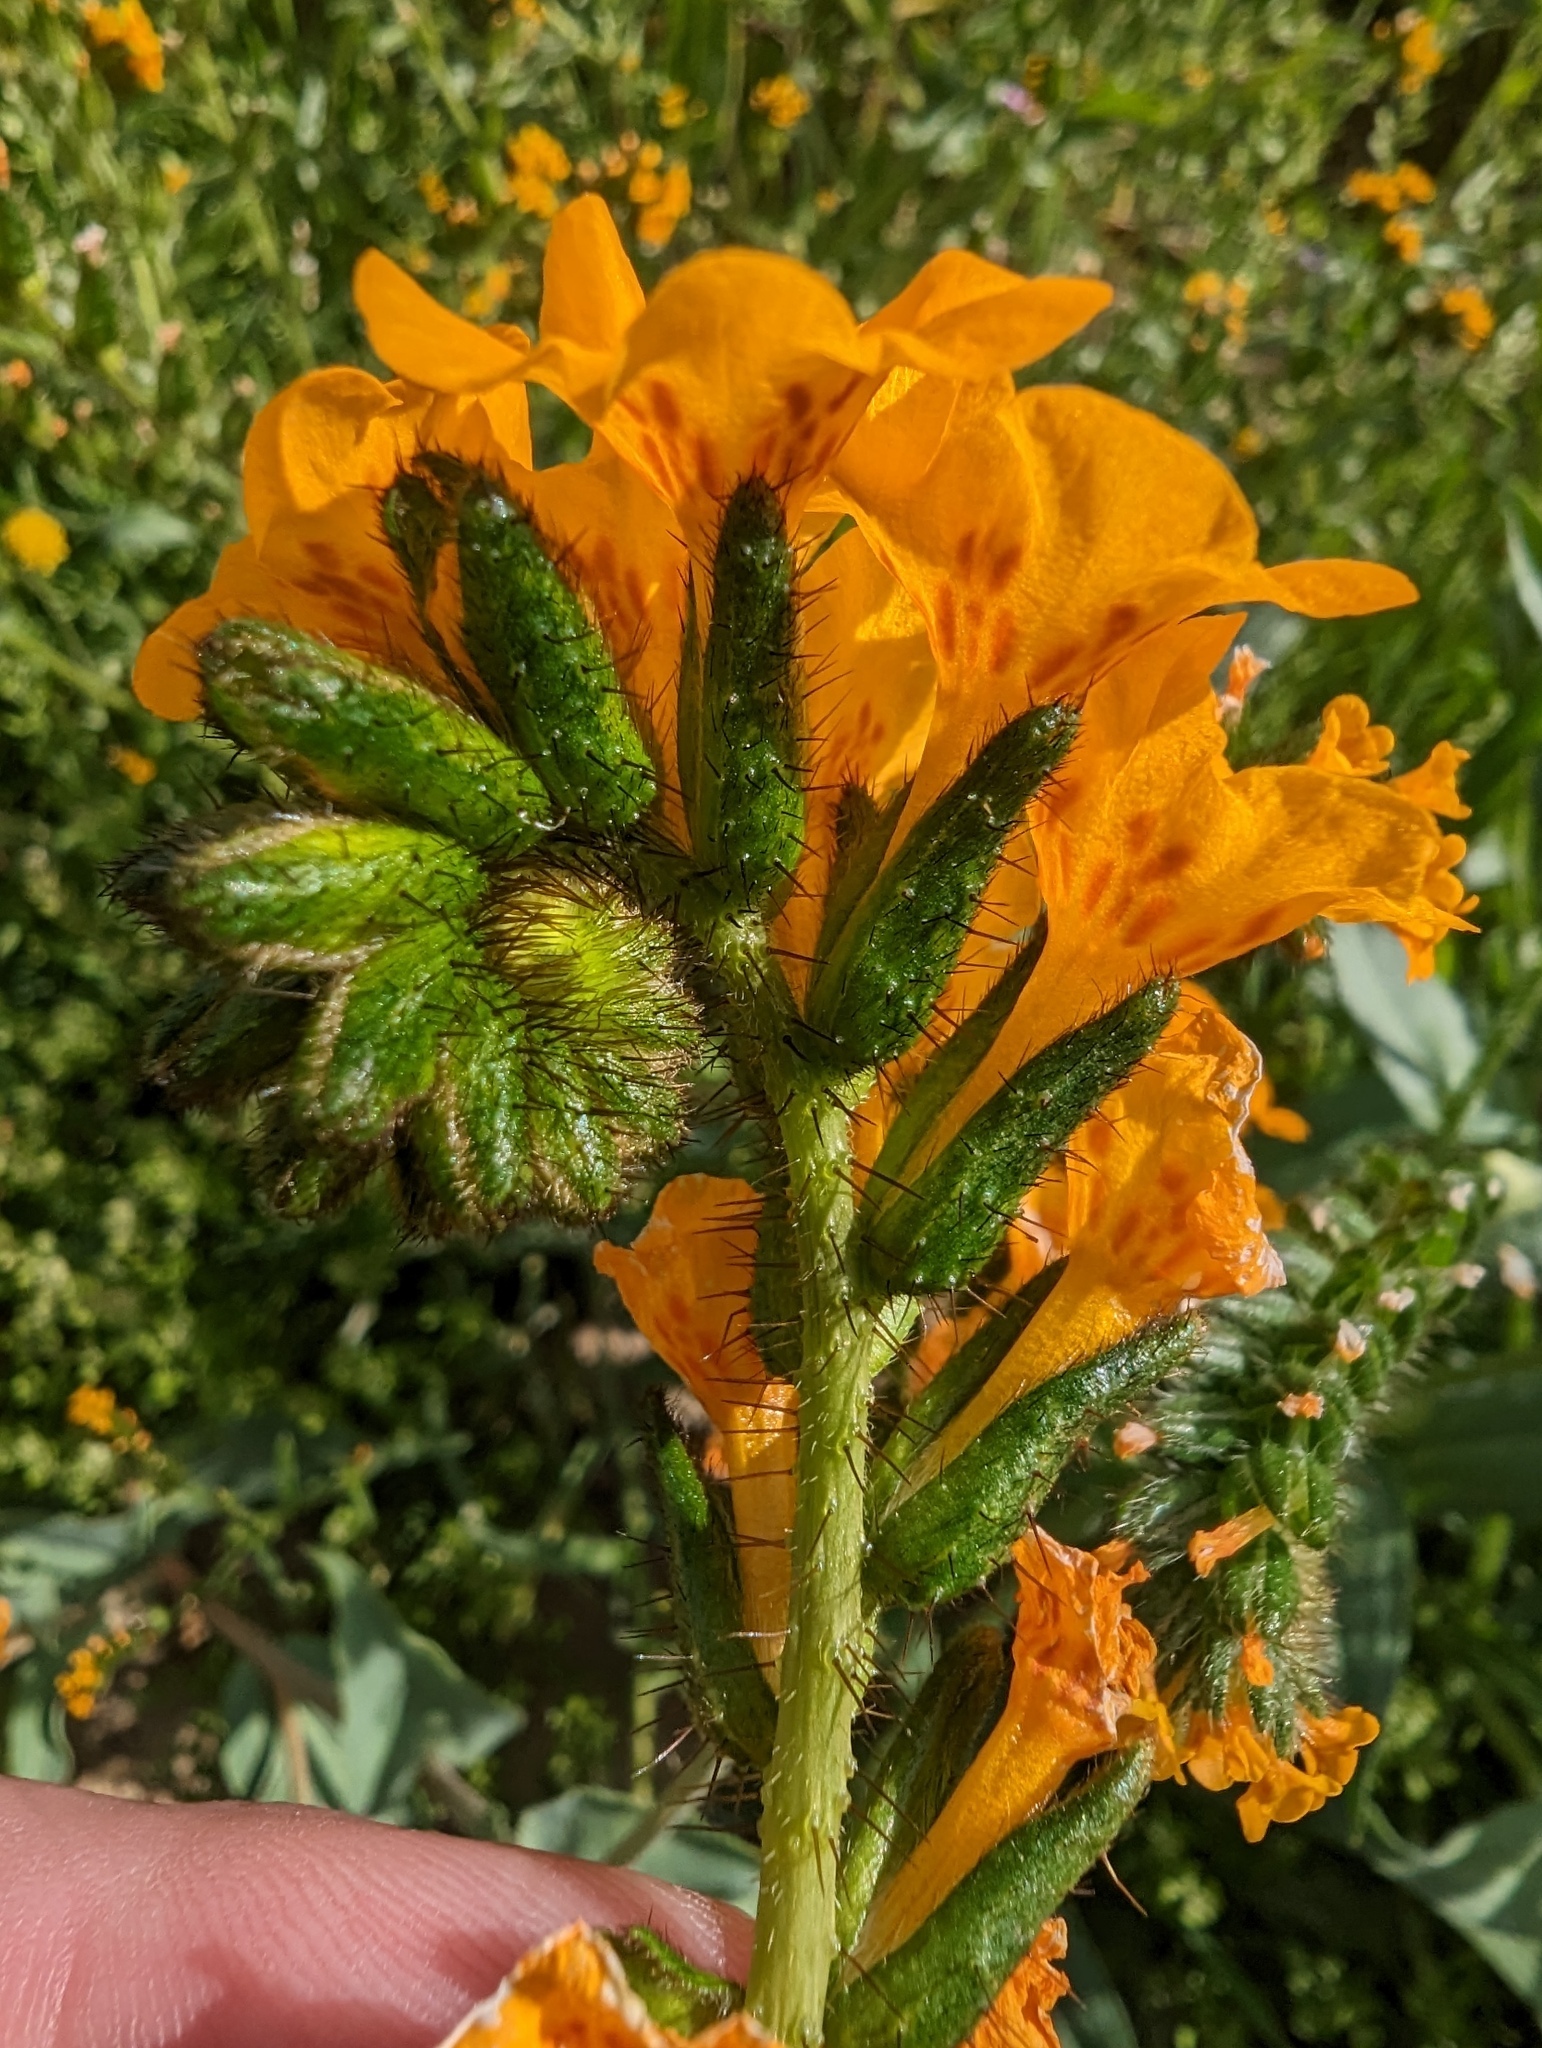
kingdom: Plantae
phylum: Tracheophyta
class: Magnoliopsida
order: Boraginales
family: Boraginaceae
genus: Amsinckia
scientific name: Amsinckia vernicosa
